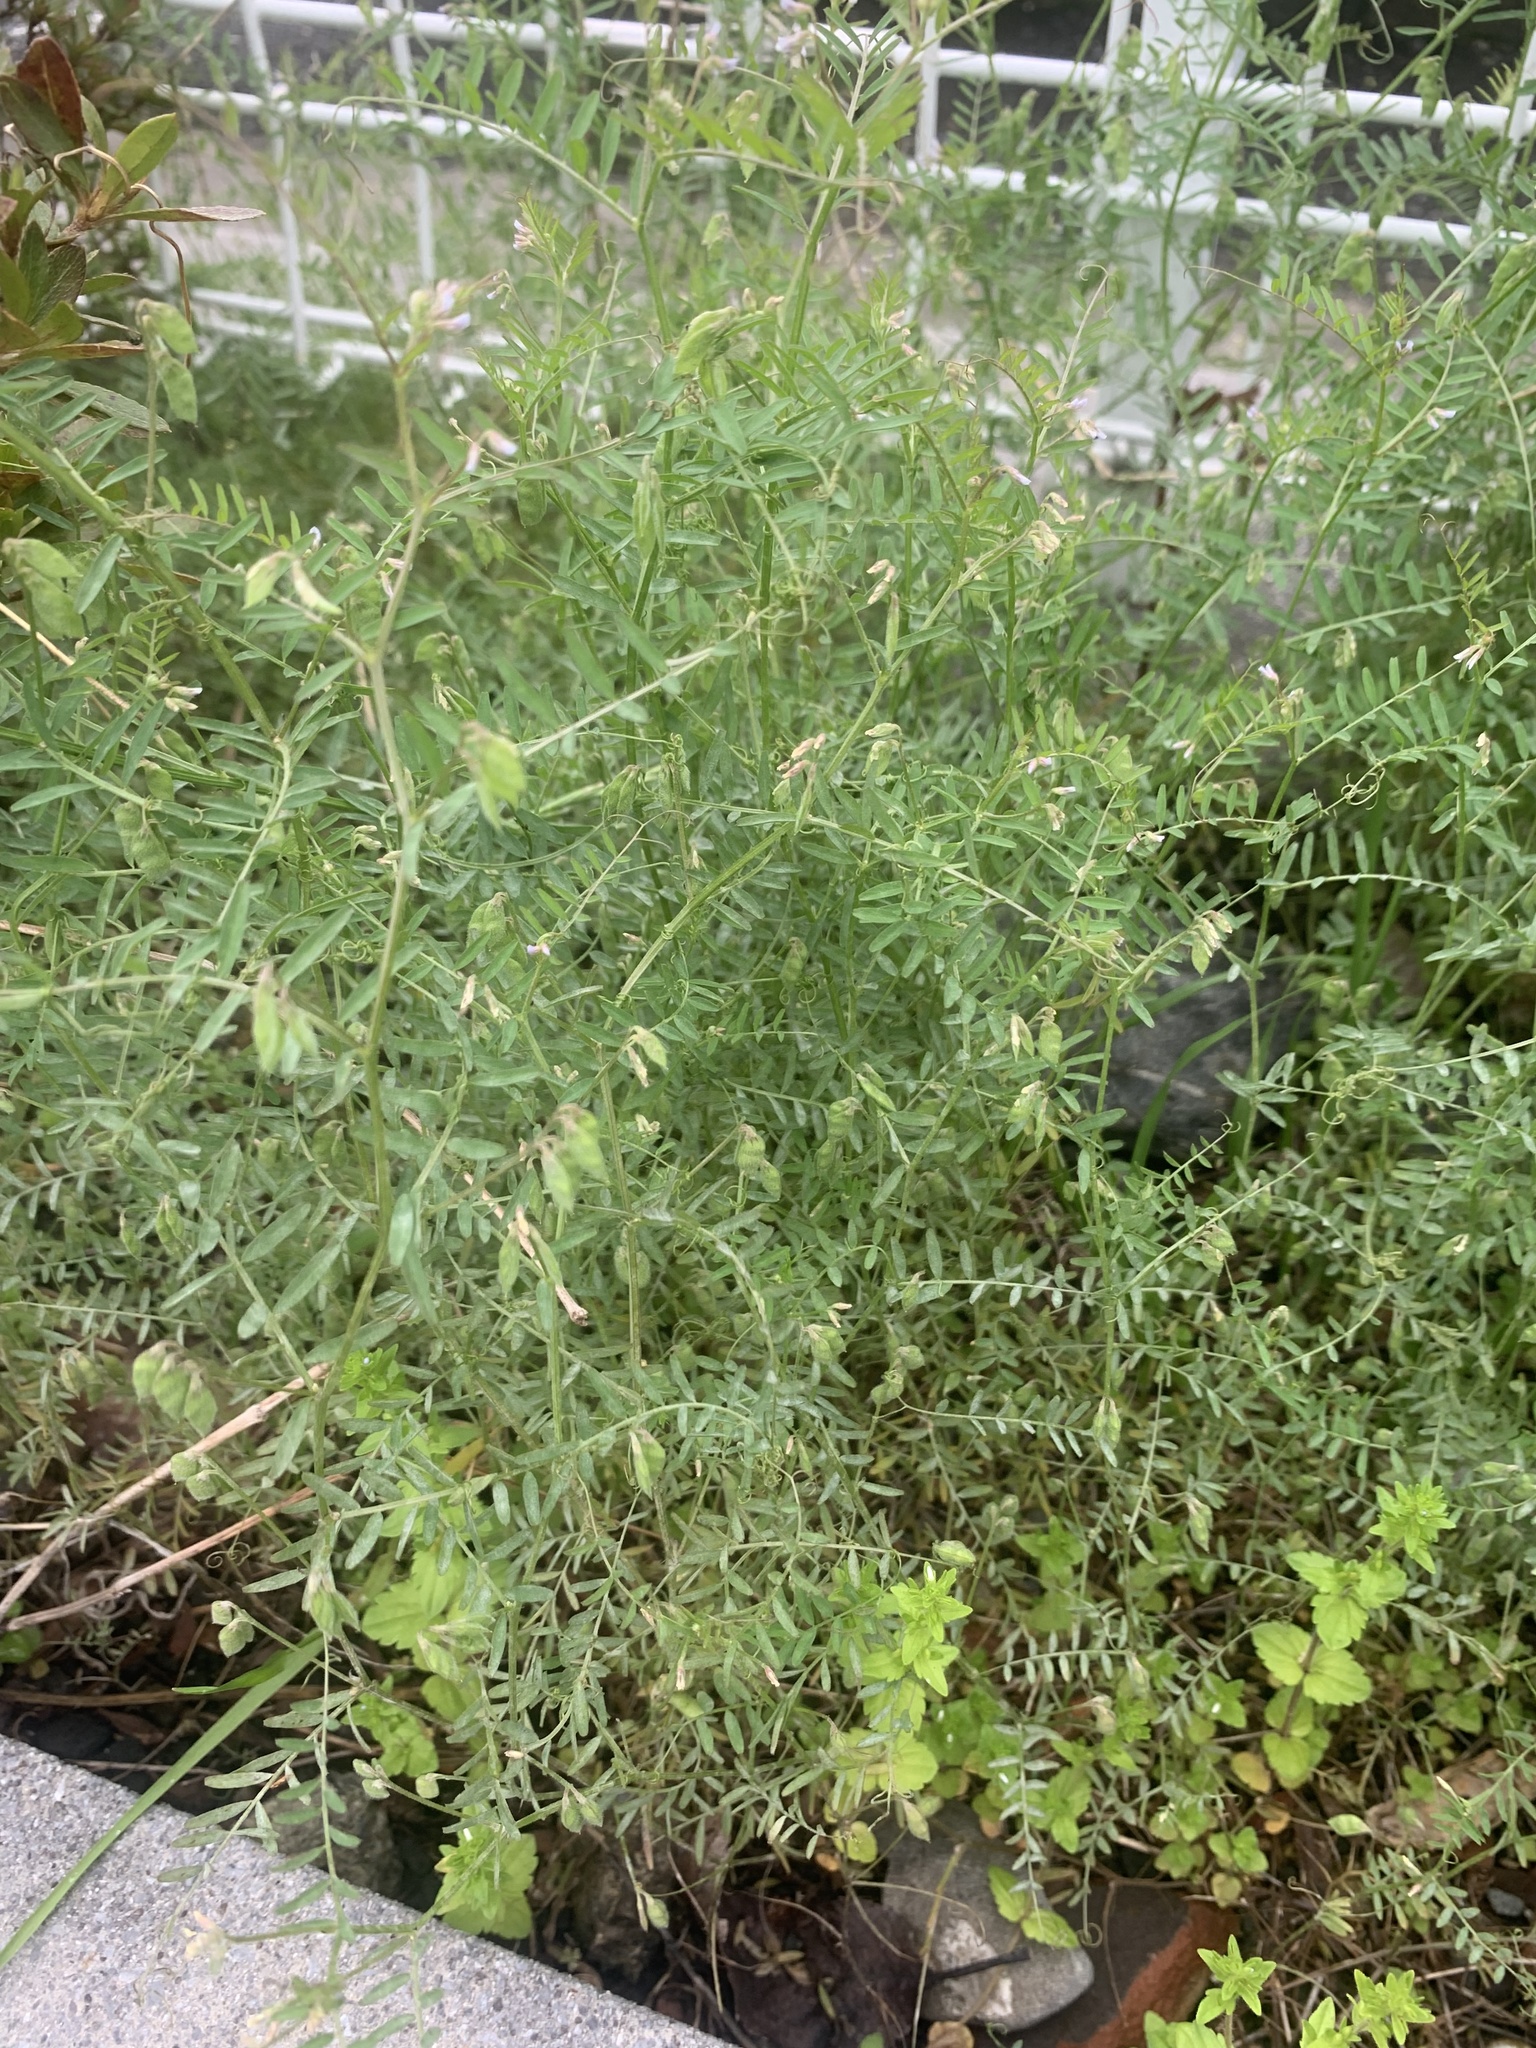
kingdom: Plantae
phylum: Tracheophyta
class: Magnoliopsida
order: Fabales
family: Fabaceae
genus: Vicia
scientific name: Vicia hirsuta
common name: Tiny vetch
